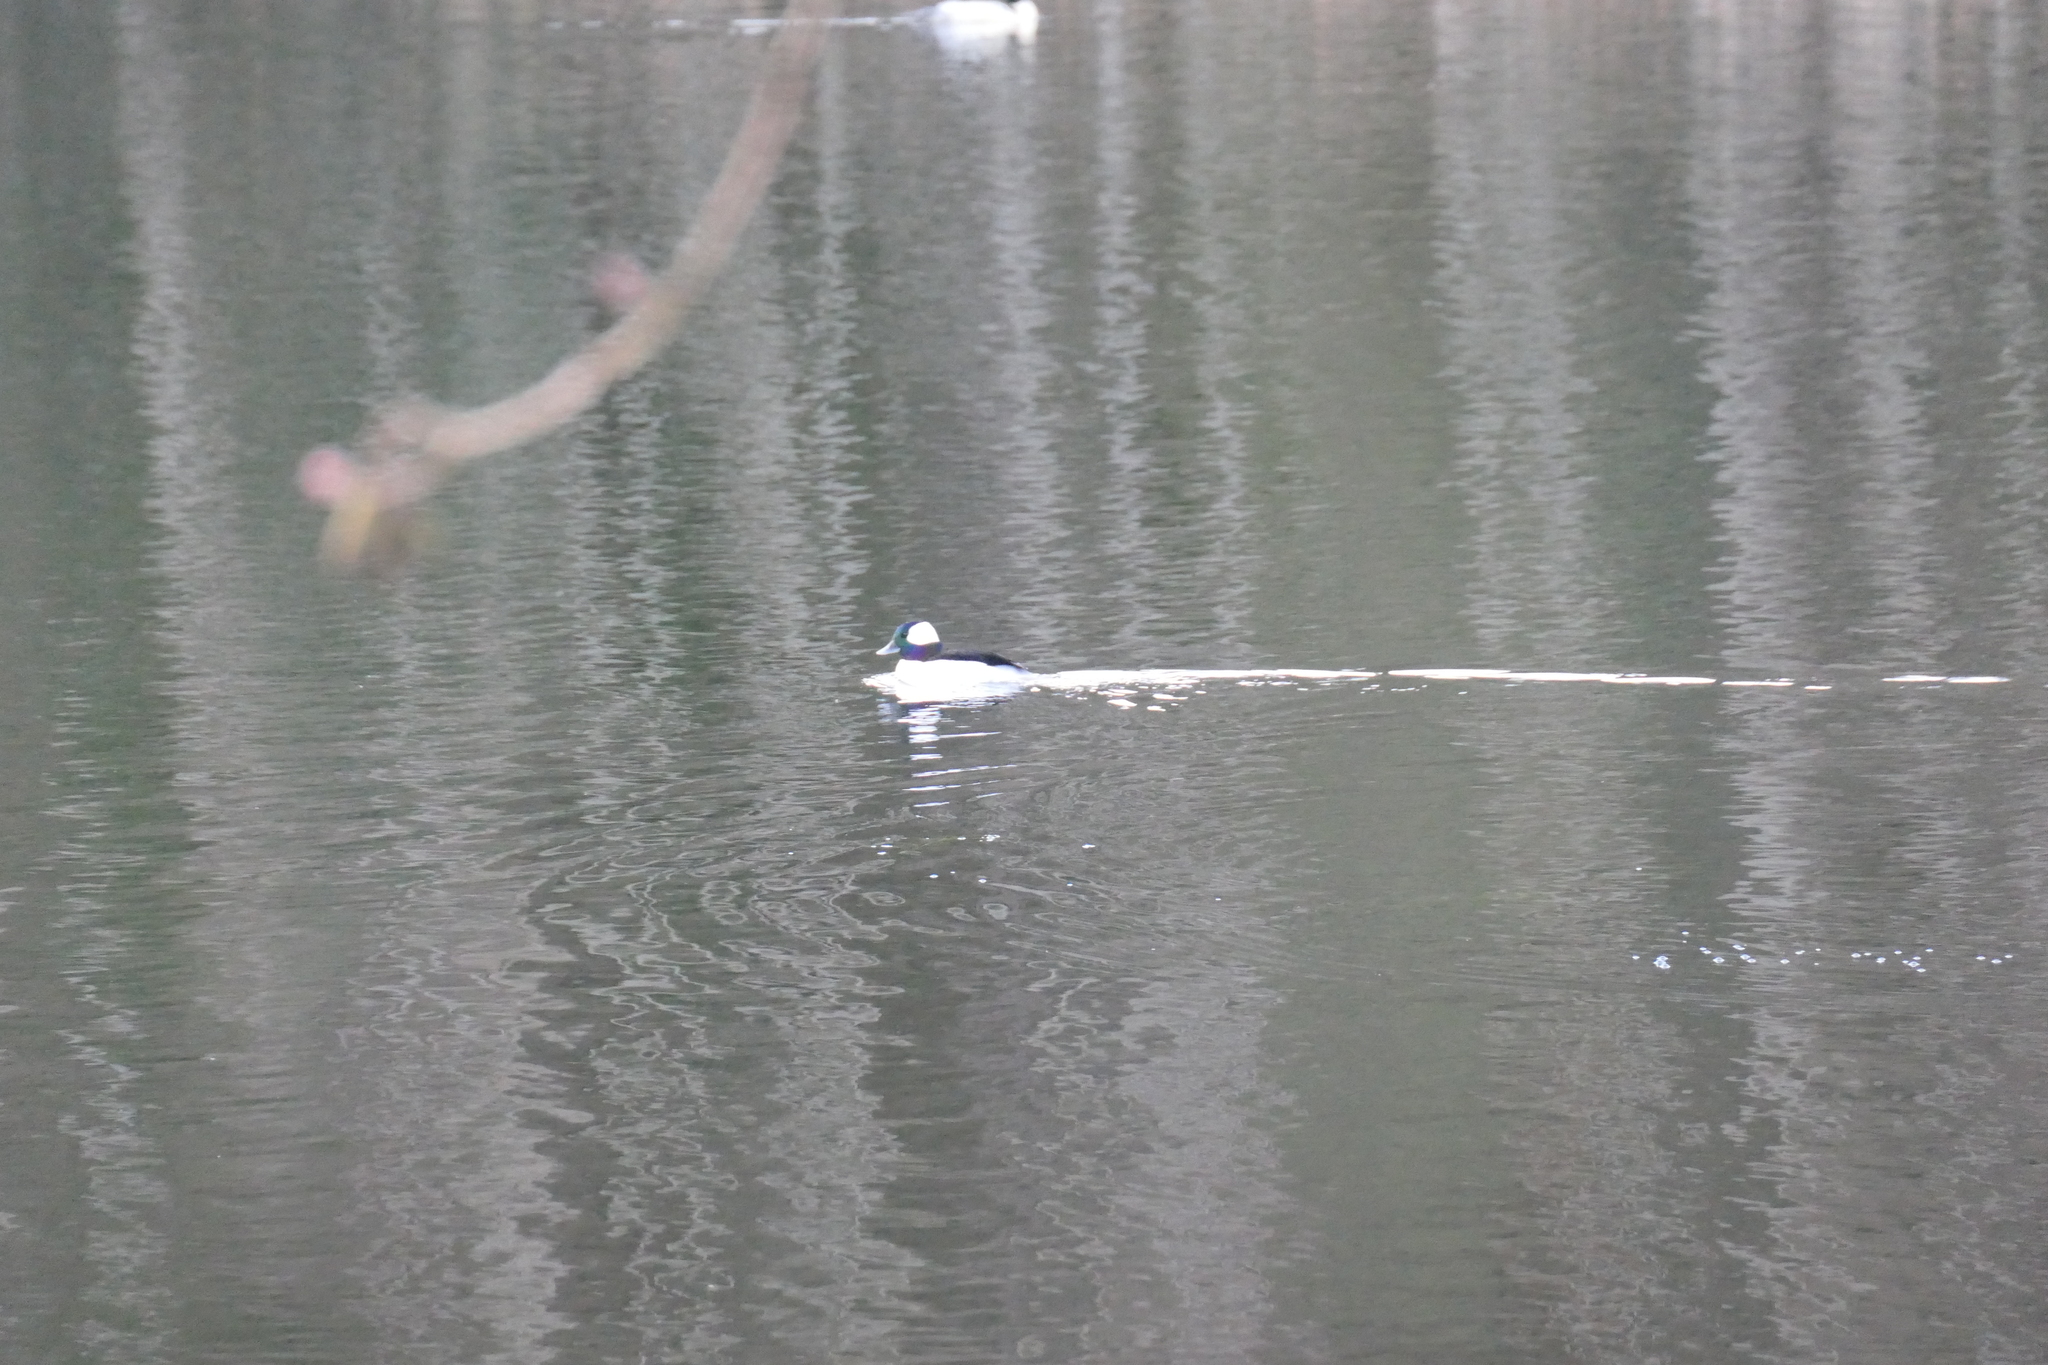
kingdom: Animalia
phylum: Chordata
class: Aves
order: Anseriformes
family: Anatidae
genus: Bucephala
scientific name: Bucephala albeola
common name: Bufflehead
